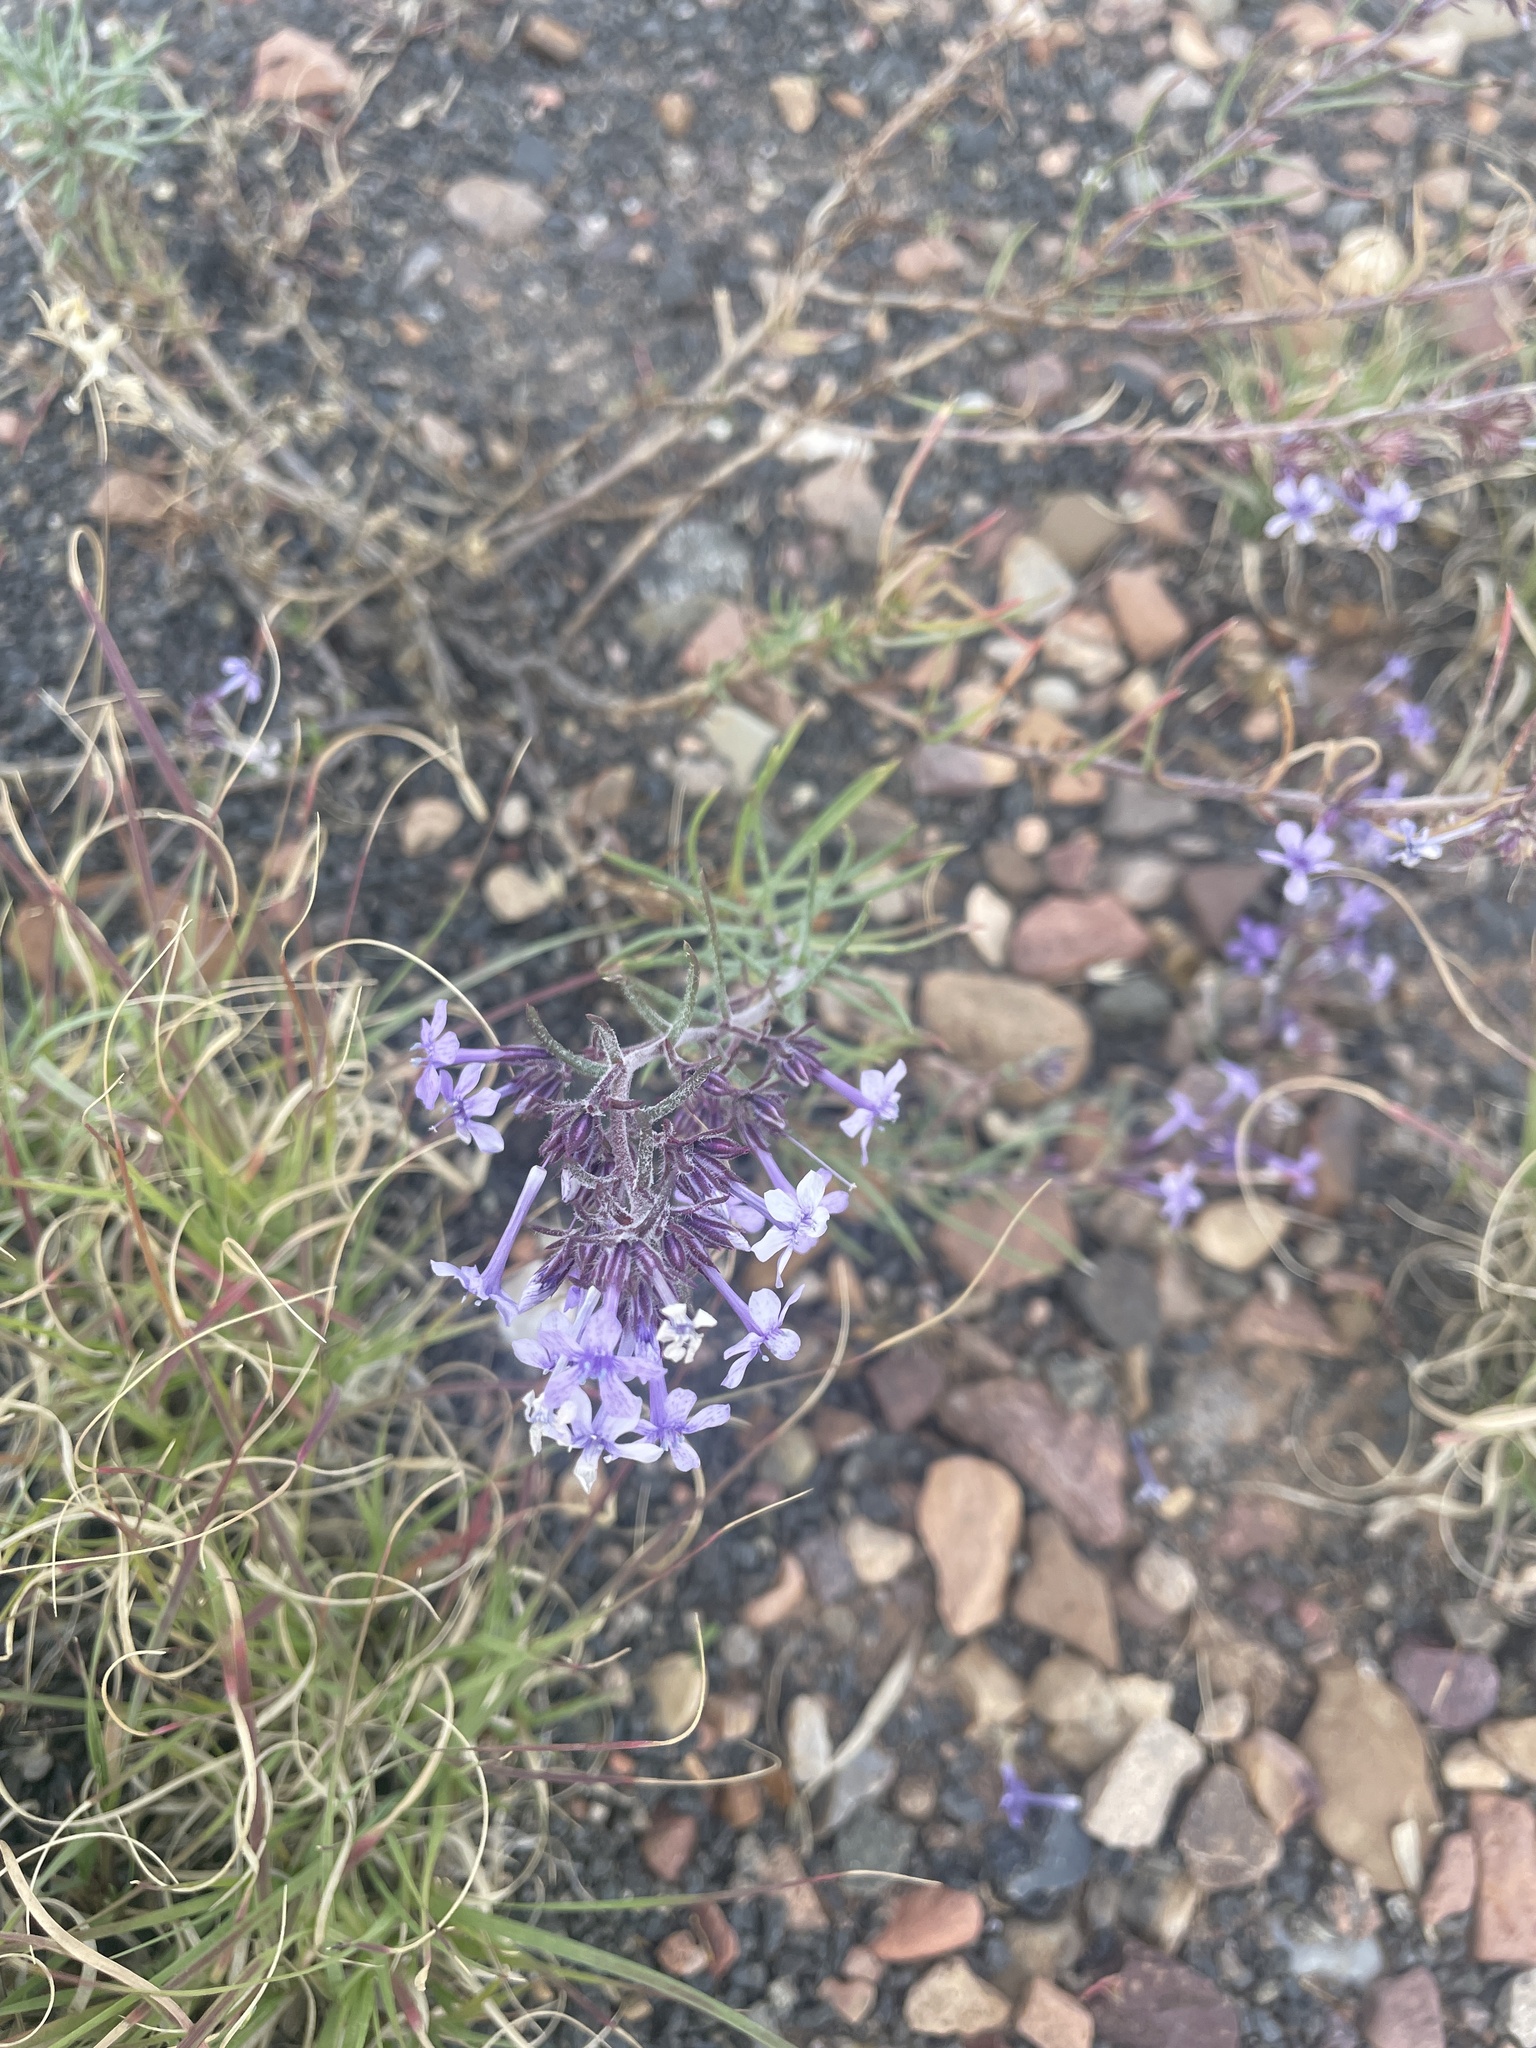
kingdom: Plantae
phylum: Tracheophyta
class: Magnoliopsida
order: Ericales
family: Polemoniaceae
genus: Ipomopsis
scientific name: Ipomopsis multiflora
